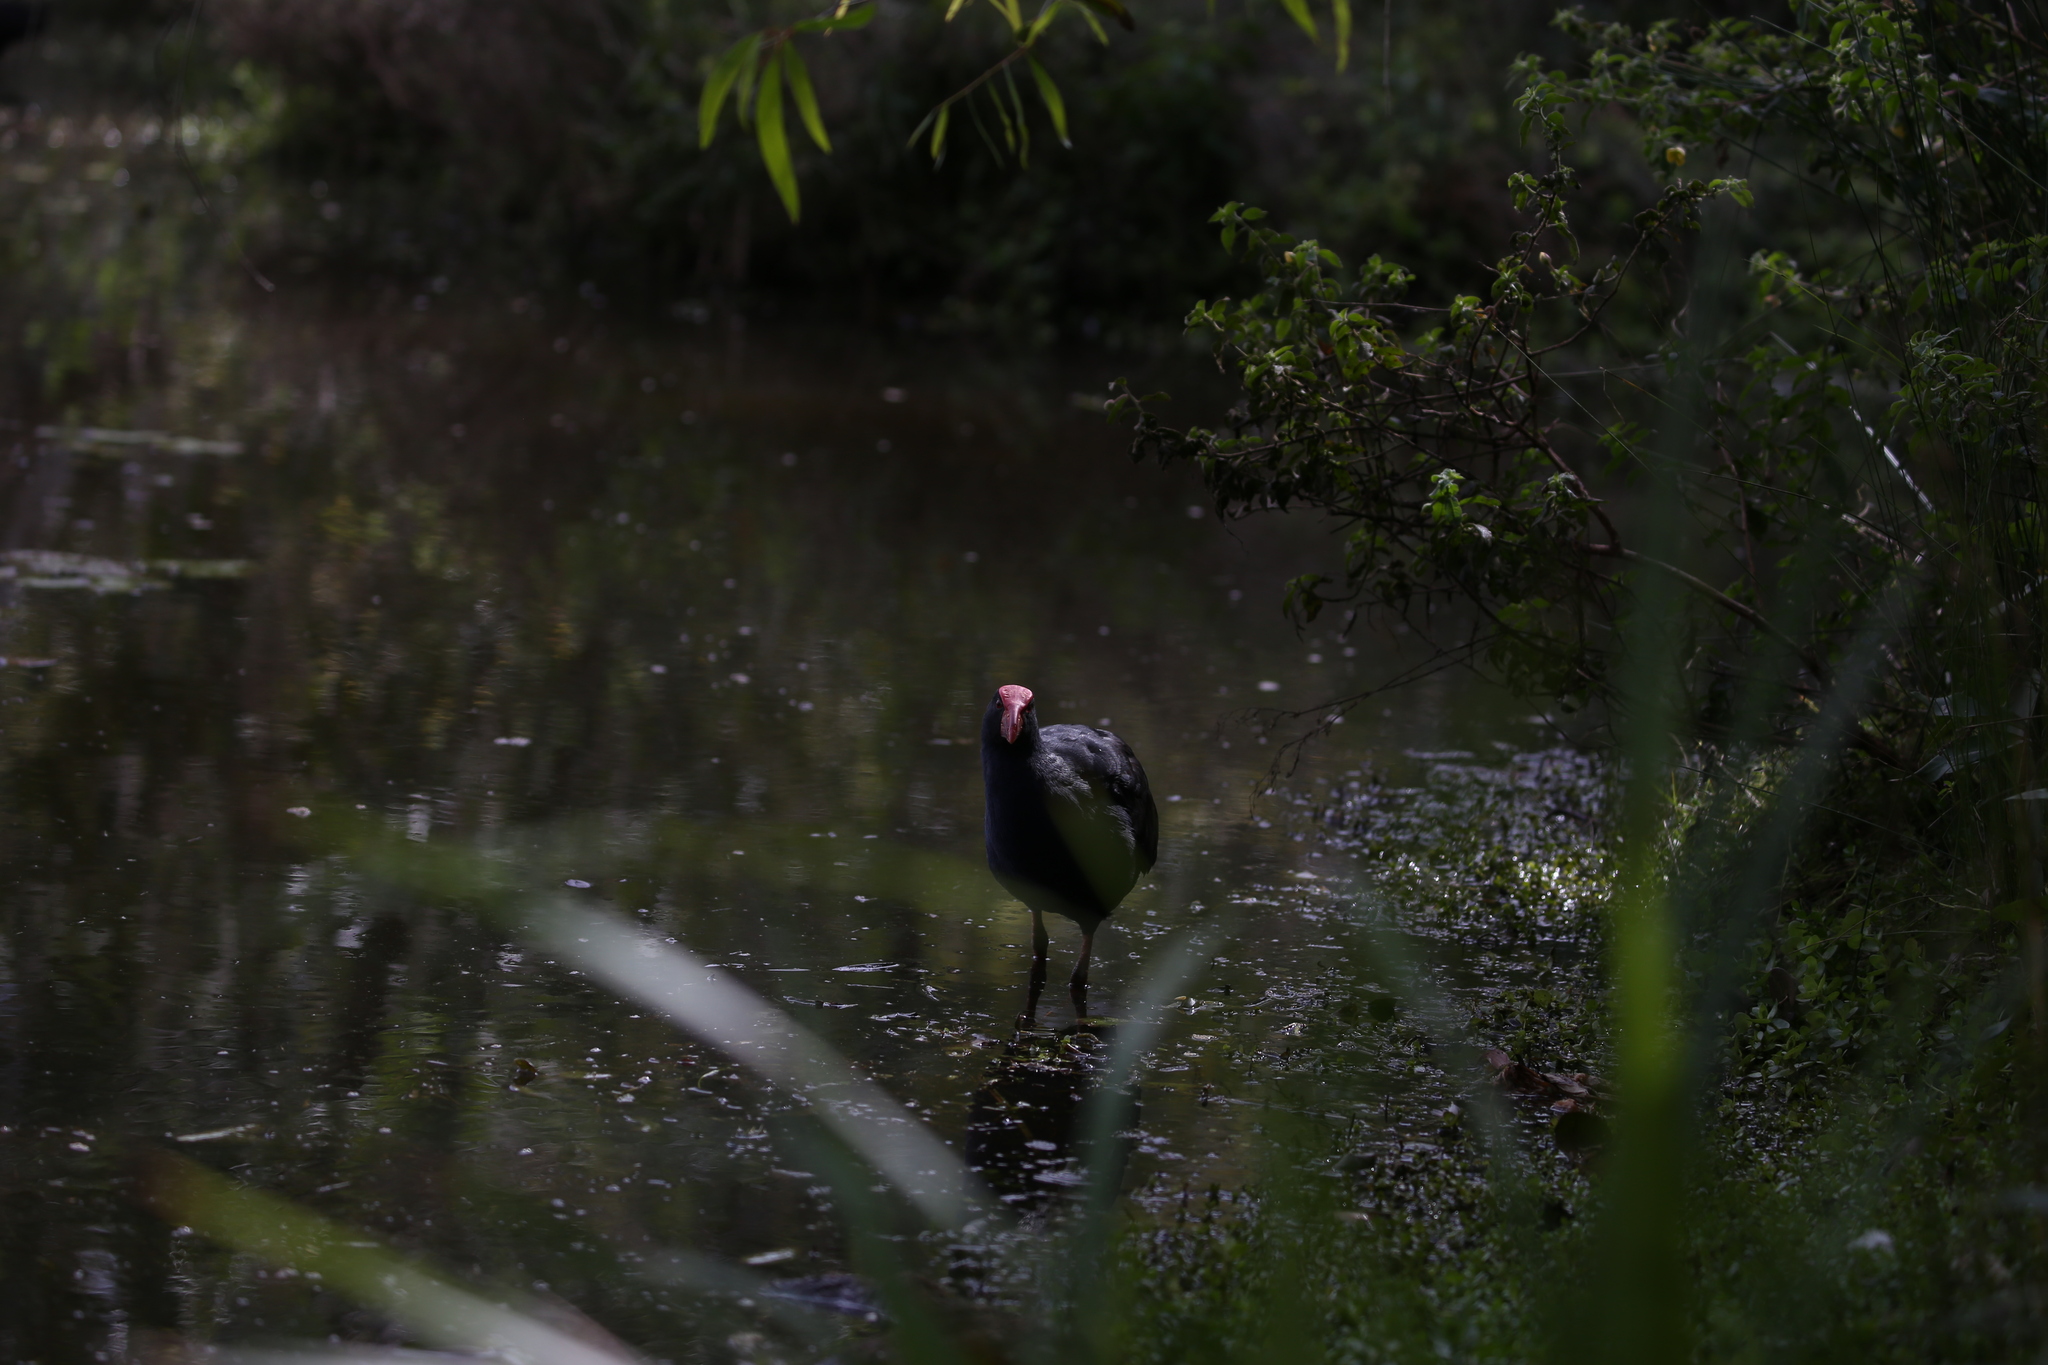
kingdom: Animalia
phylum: Chordata
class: Aves
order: Gruiformes
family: Rallidae
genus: Porphyrio
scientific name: Porphyrio melanotus
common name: Australasian swamphen
